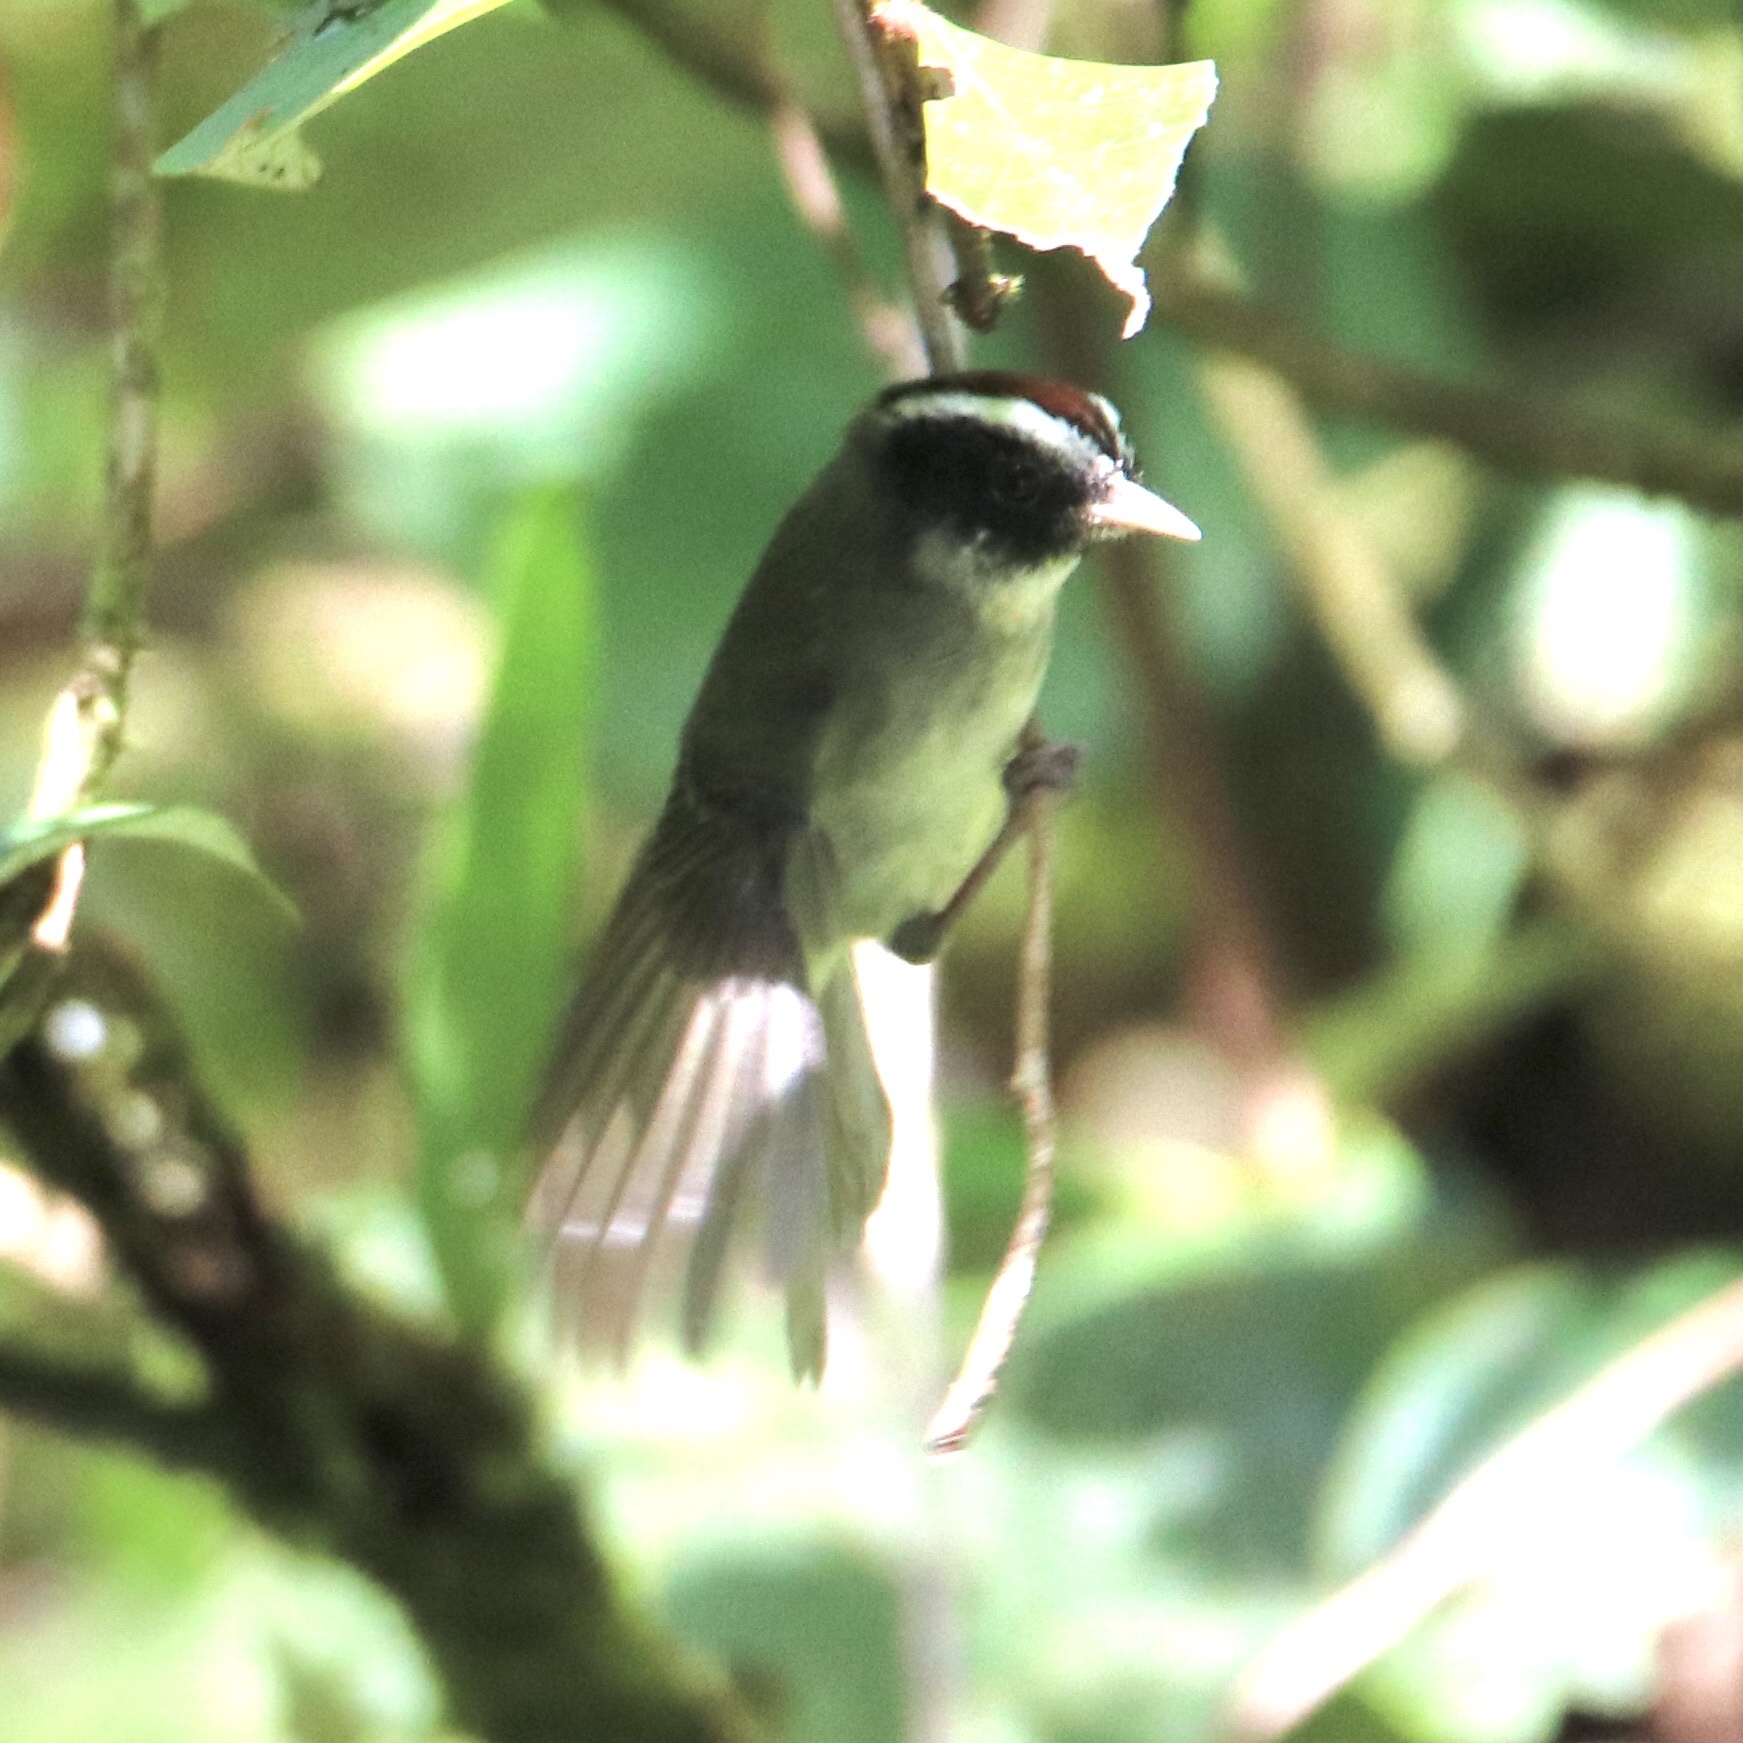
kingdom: Animalia
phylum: Chordata
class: Aves
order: Passeriformes
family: Parulidae
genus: Basileuterus
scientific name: Basileuterus melanogenys
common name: Black-cheeked warbler
